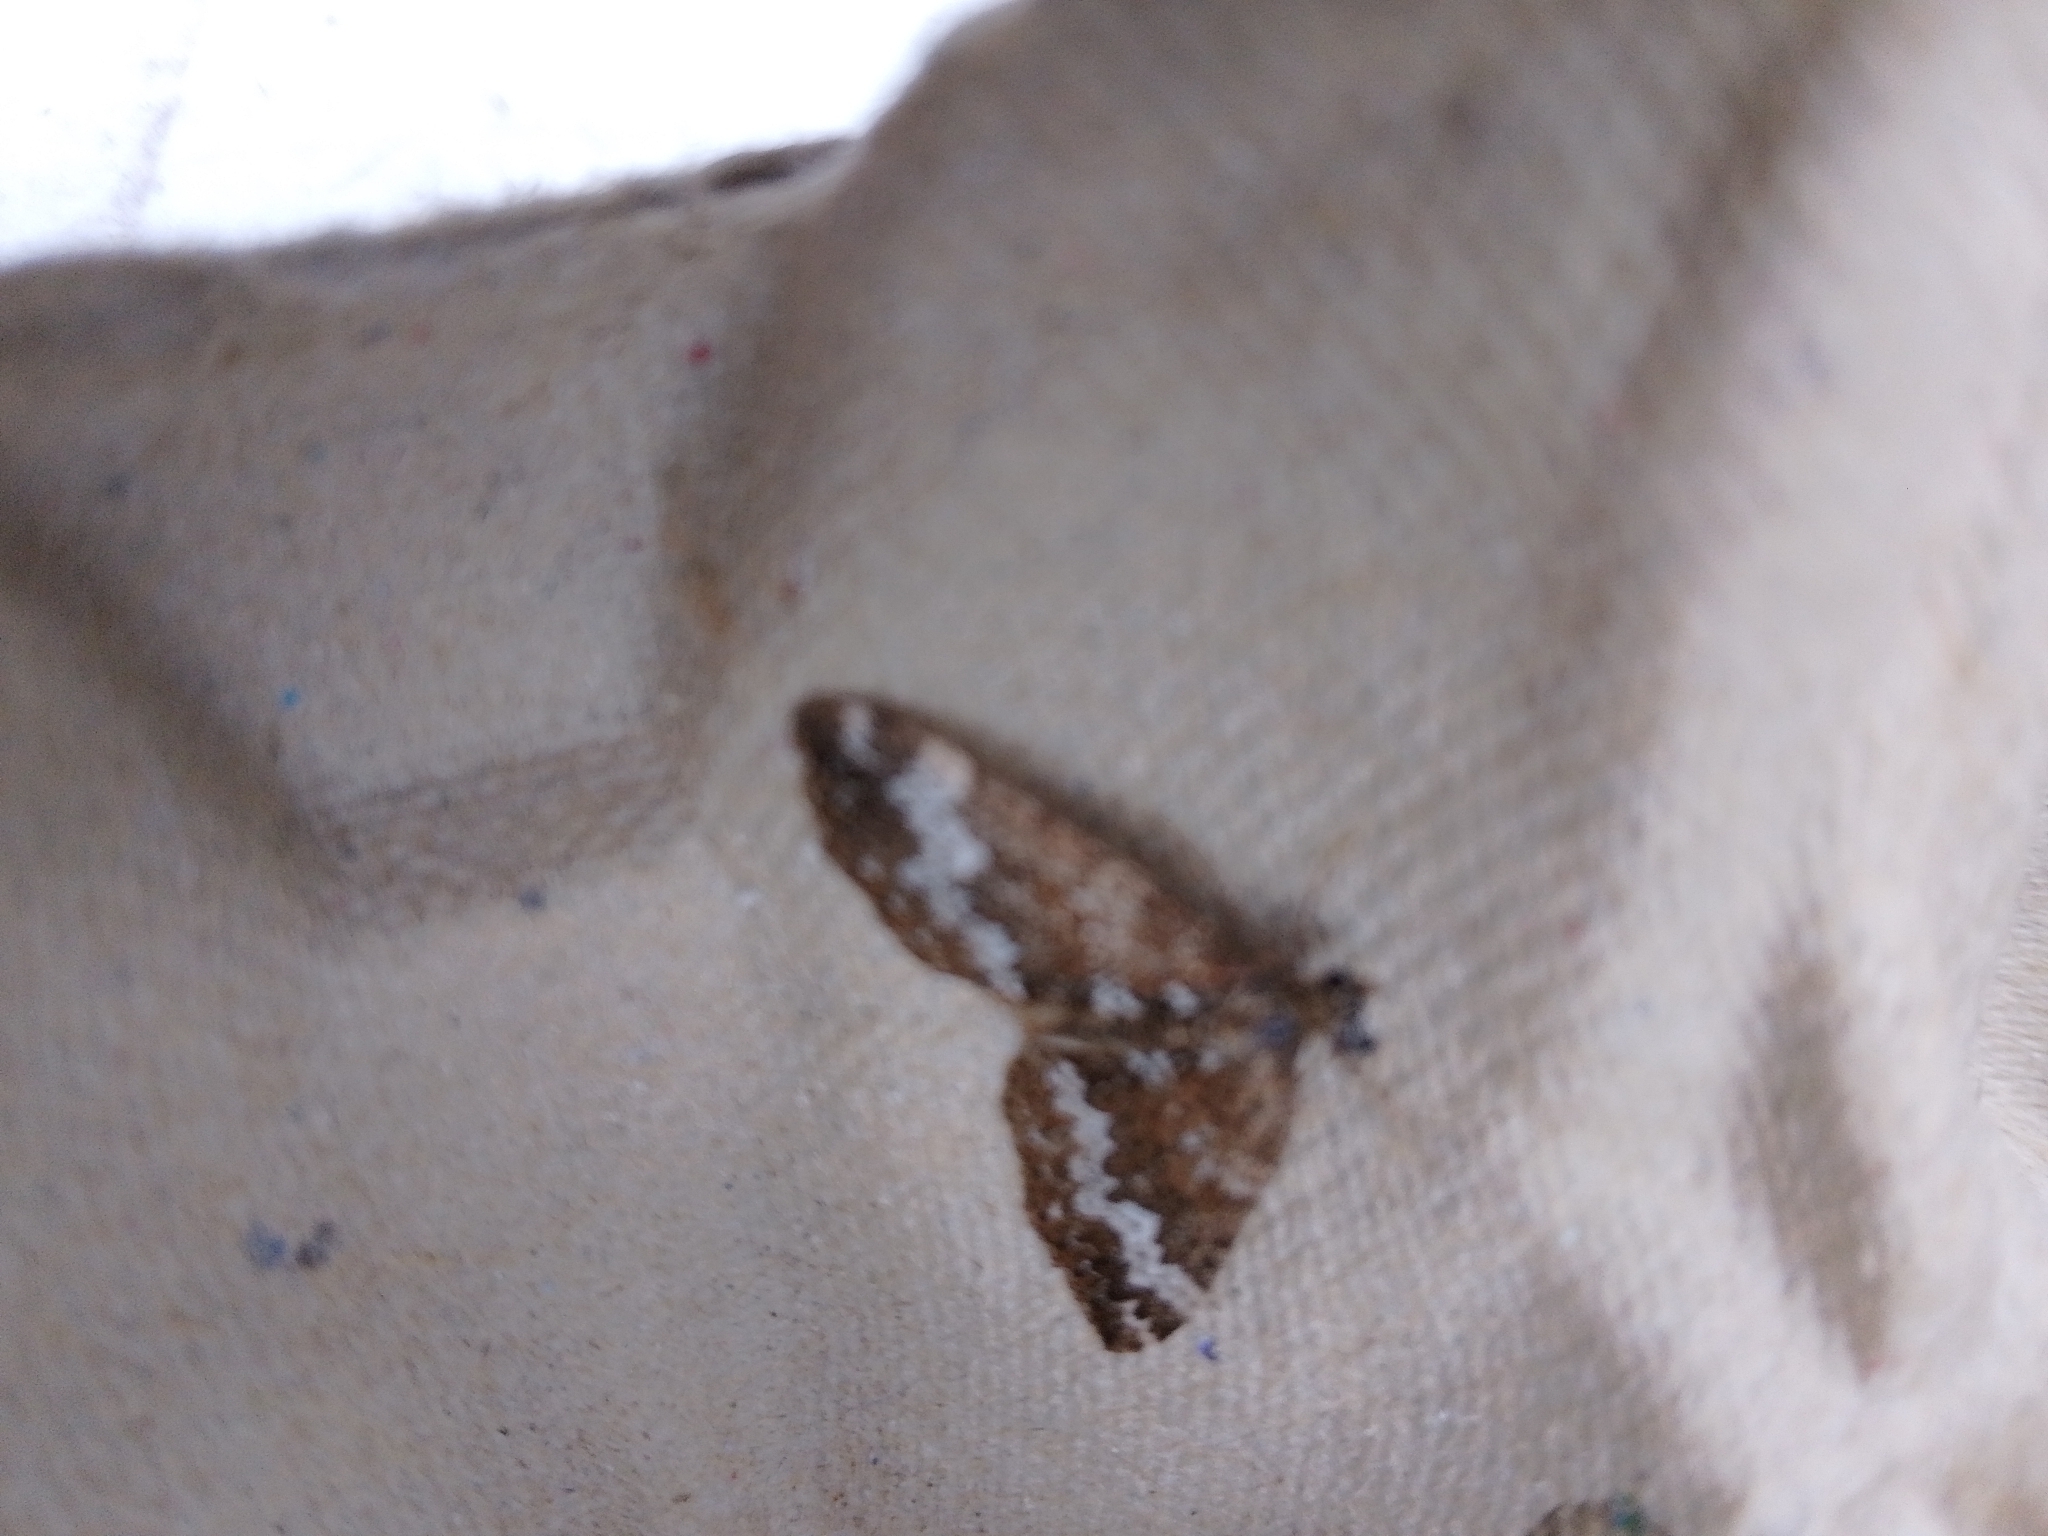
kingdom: Animalia
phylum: Arthropoda
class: Insecta
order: Lepidoptera
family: Geometridae
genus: Perizoma
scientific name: Perizoma alchemillata
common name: Small rivulet
